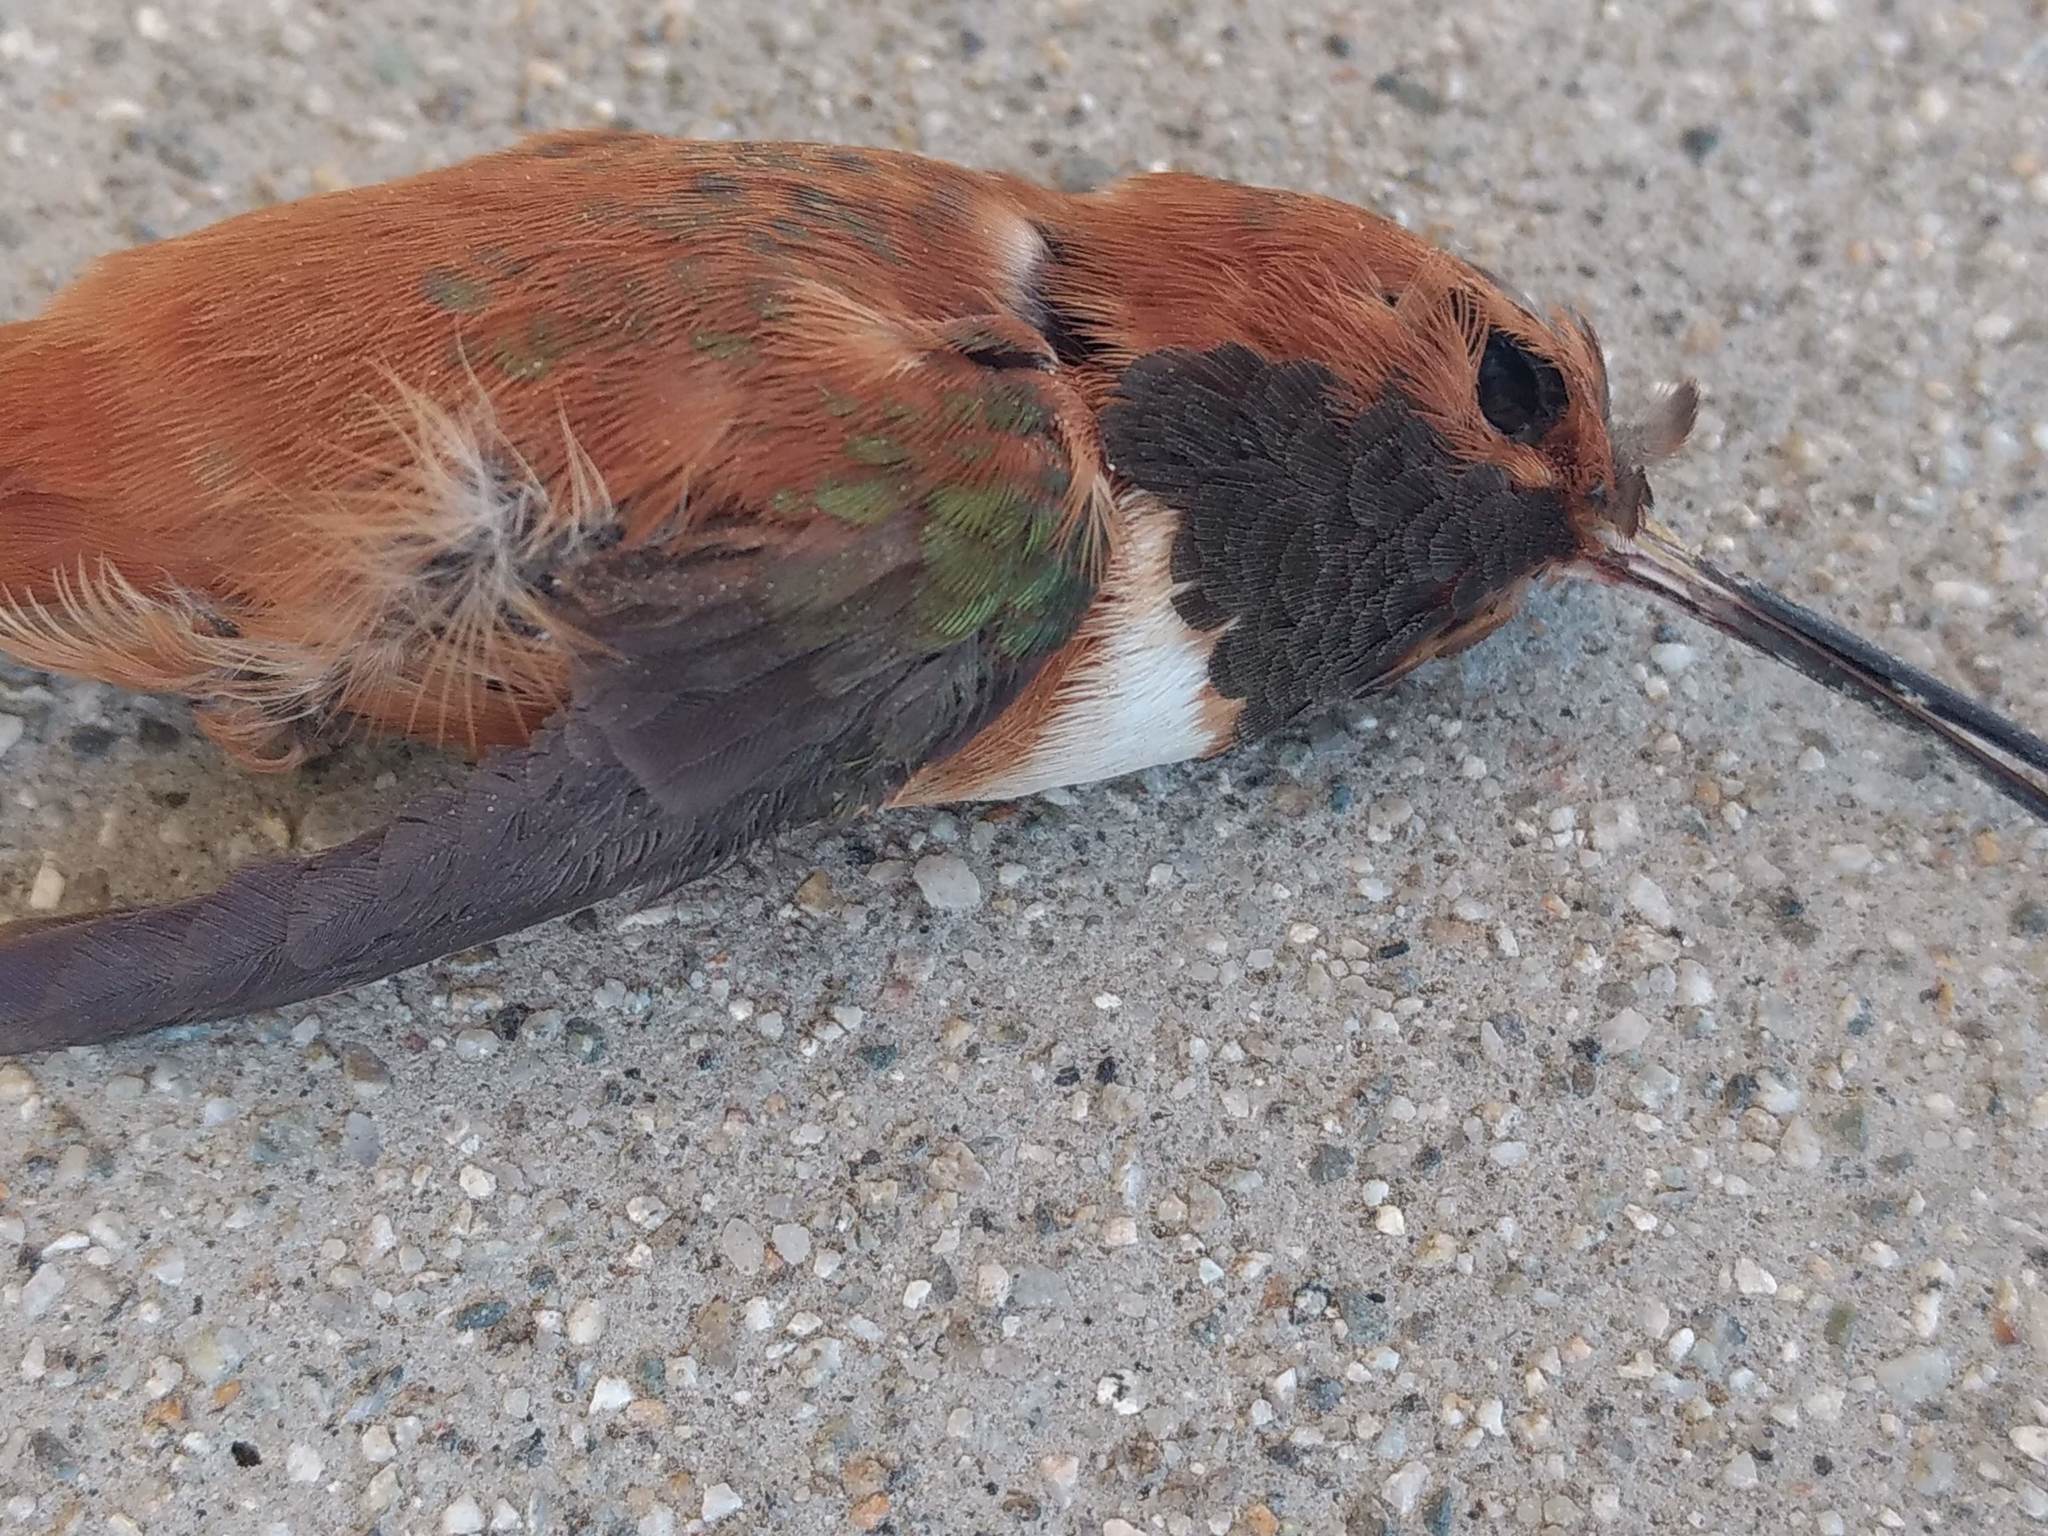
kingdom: Animalia
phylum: Chordata
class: Aves
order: Apodiformes
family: Trochilidae
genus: Selasphorus
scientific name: Selasphorus rufus
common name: Rufous hummingbird
